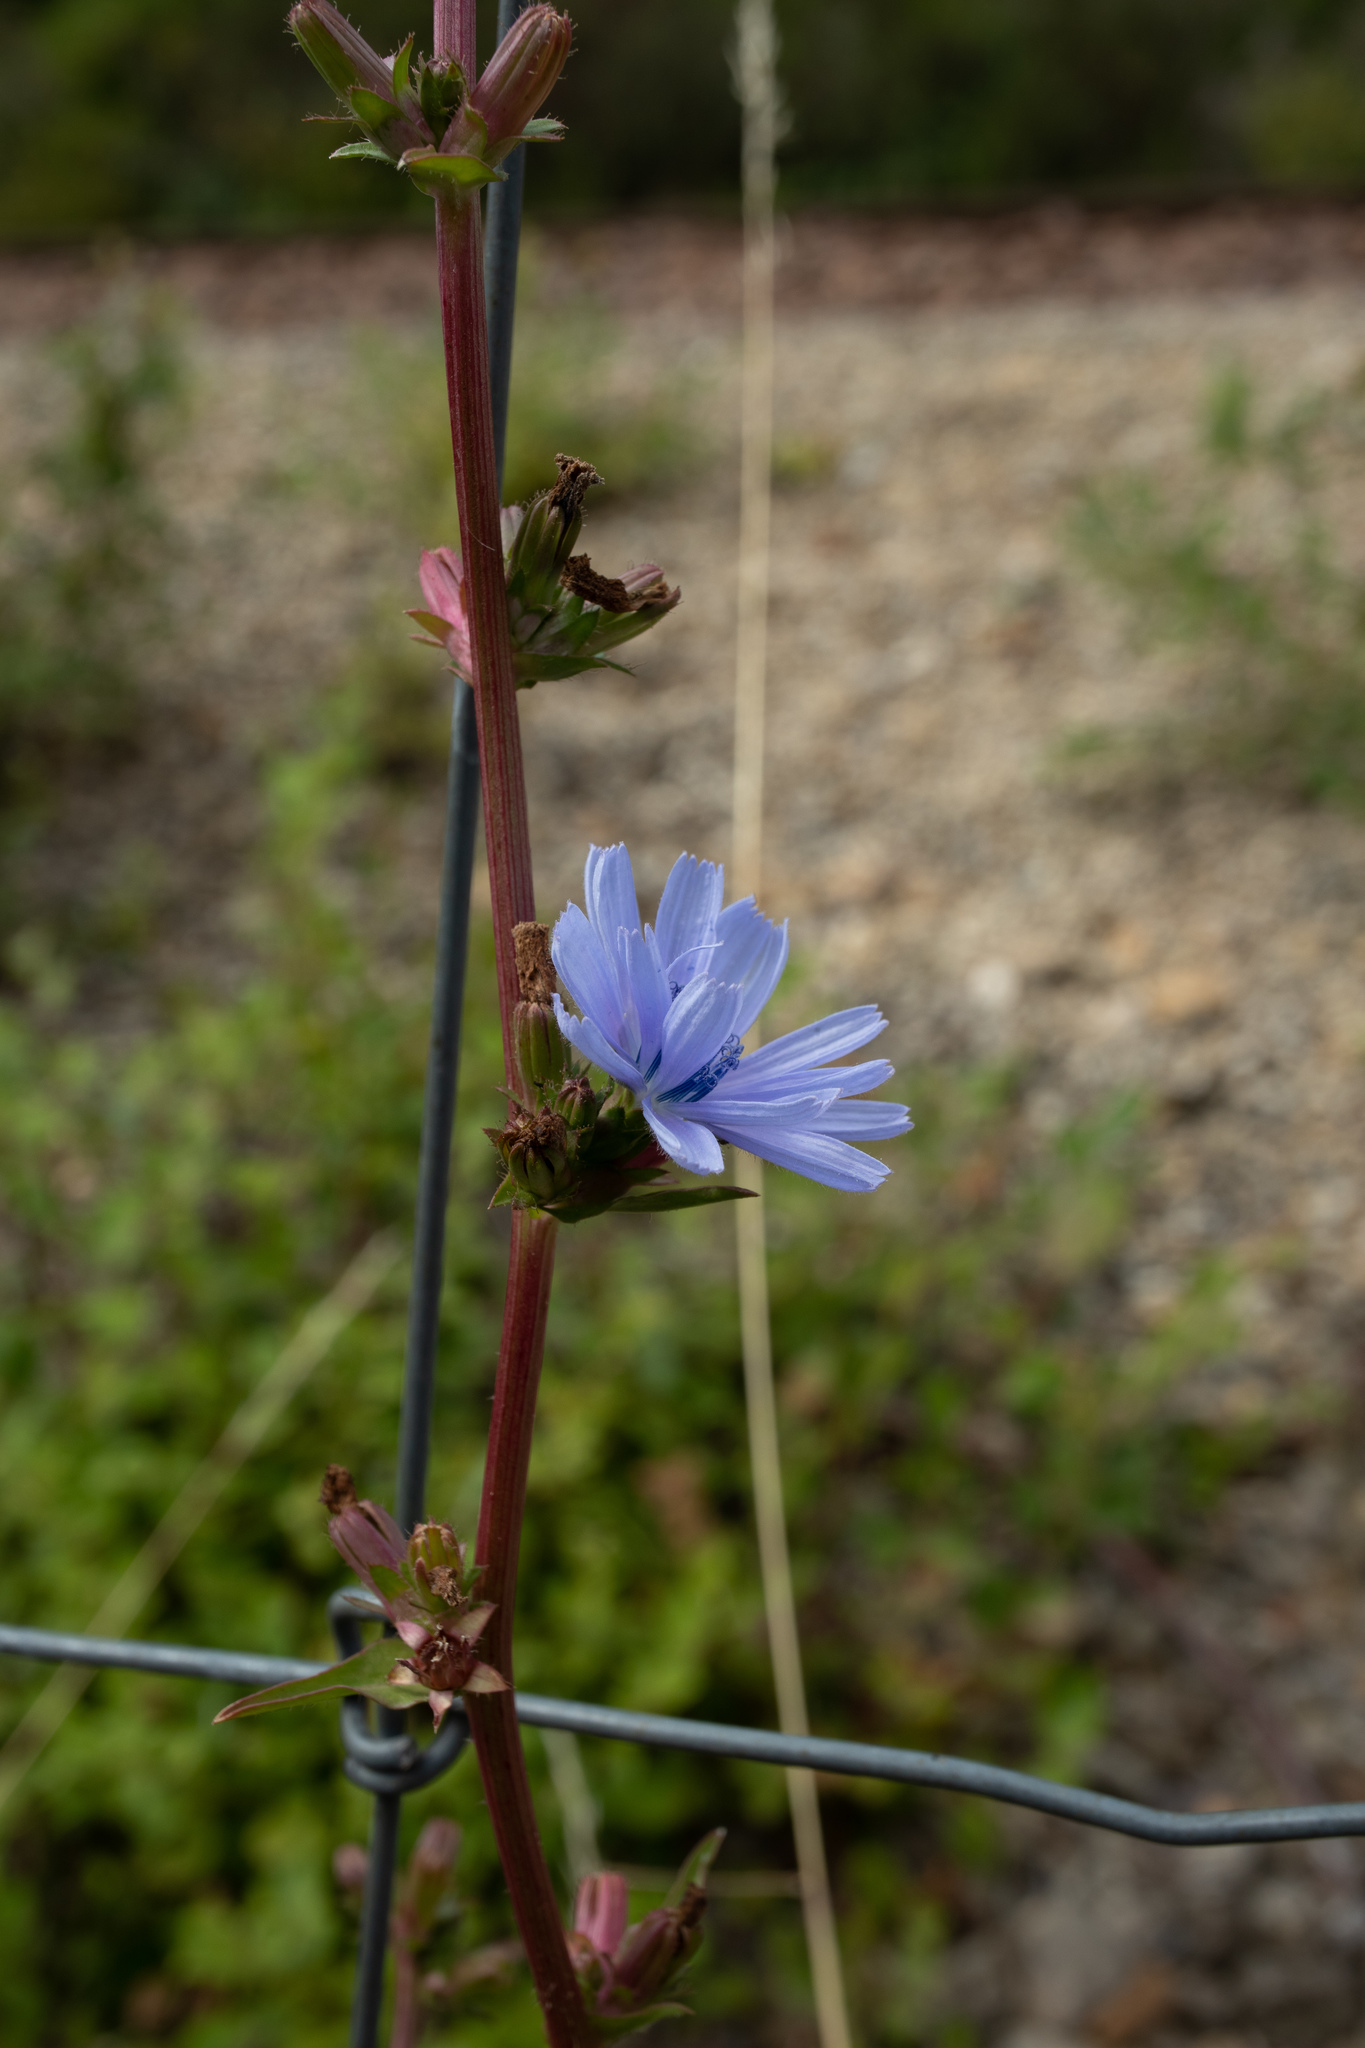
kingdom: Plantae
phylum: Tracheophyta
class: Magnoliopsida
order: Asterales
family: Asteraceae
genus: Cichorium
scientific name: Cichorium intybus
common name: Chicory
